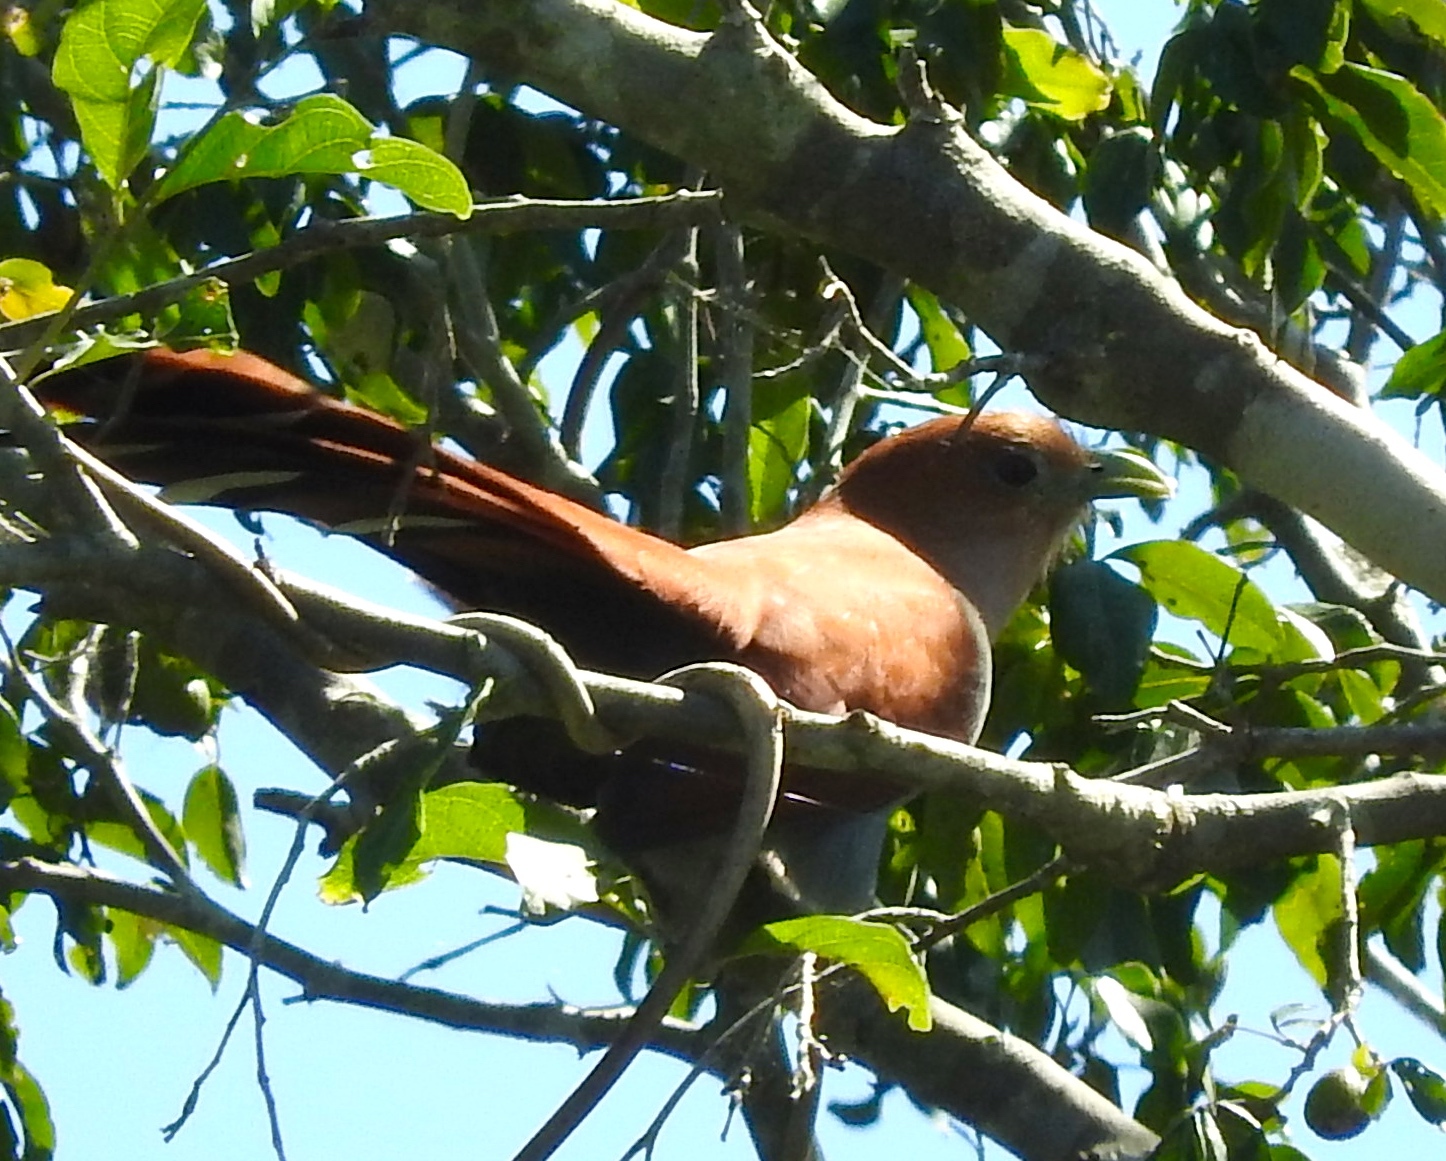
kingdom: Animalia
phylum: Chordata
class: Aves
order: Cuculiformes
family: Cuculidae
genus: Piaya
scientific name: Piaya cayana
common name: Squirrel cuckoo
